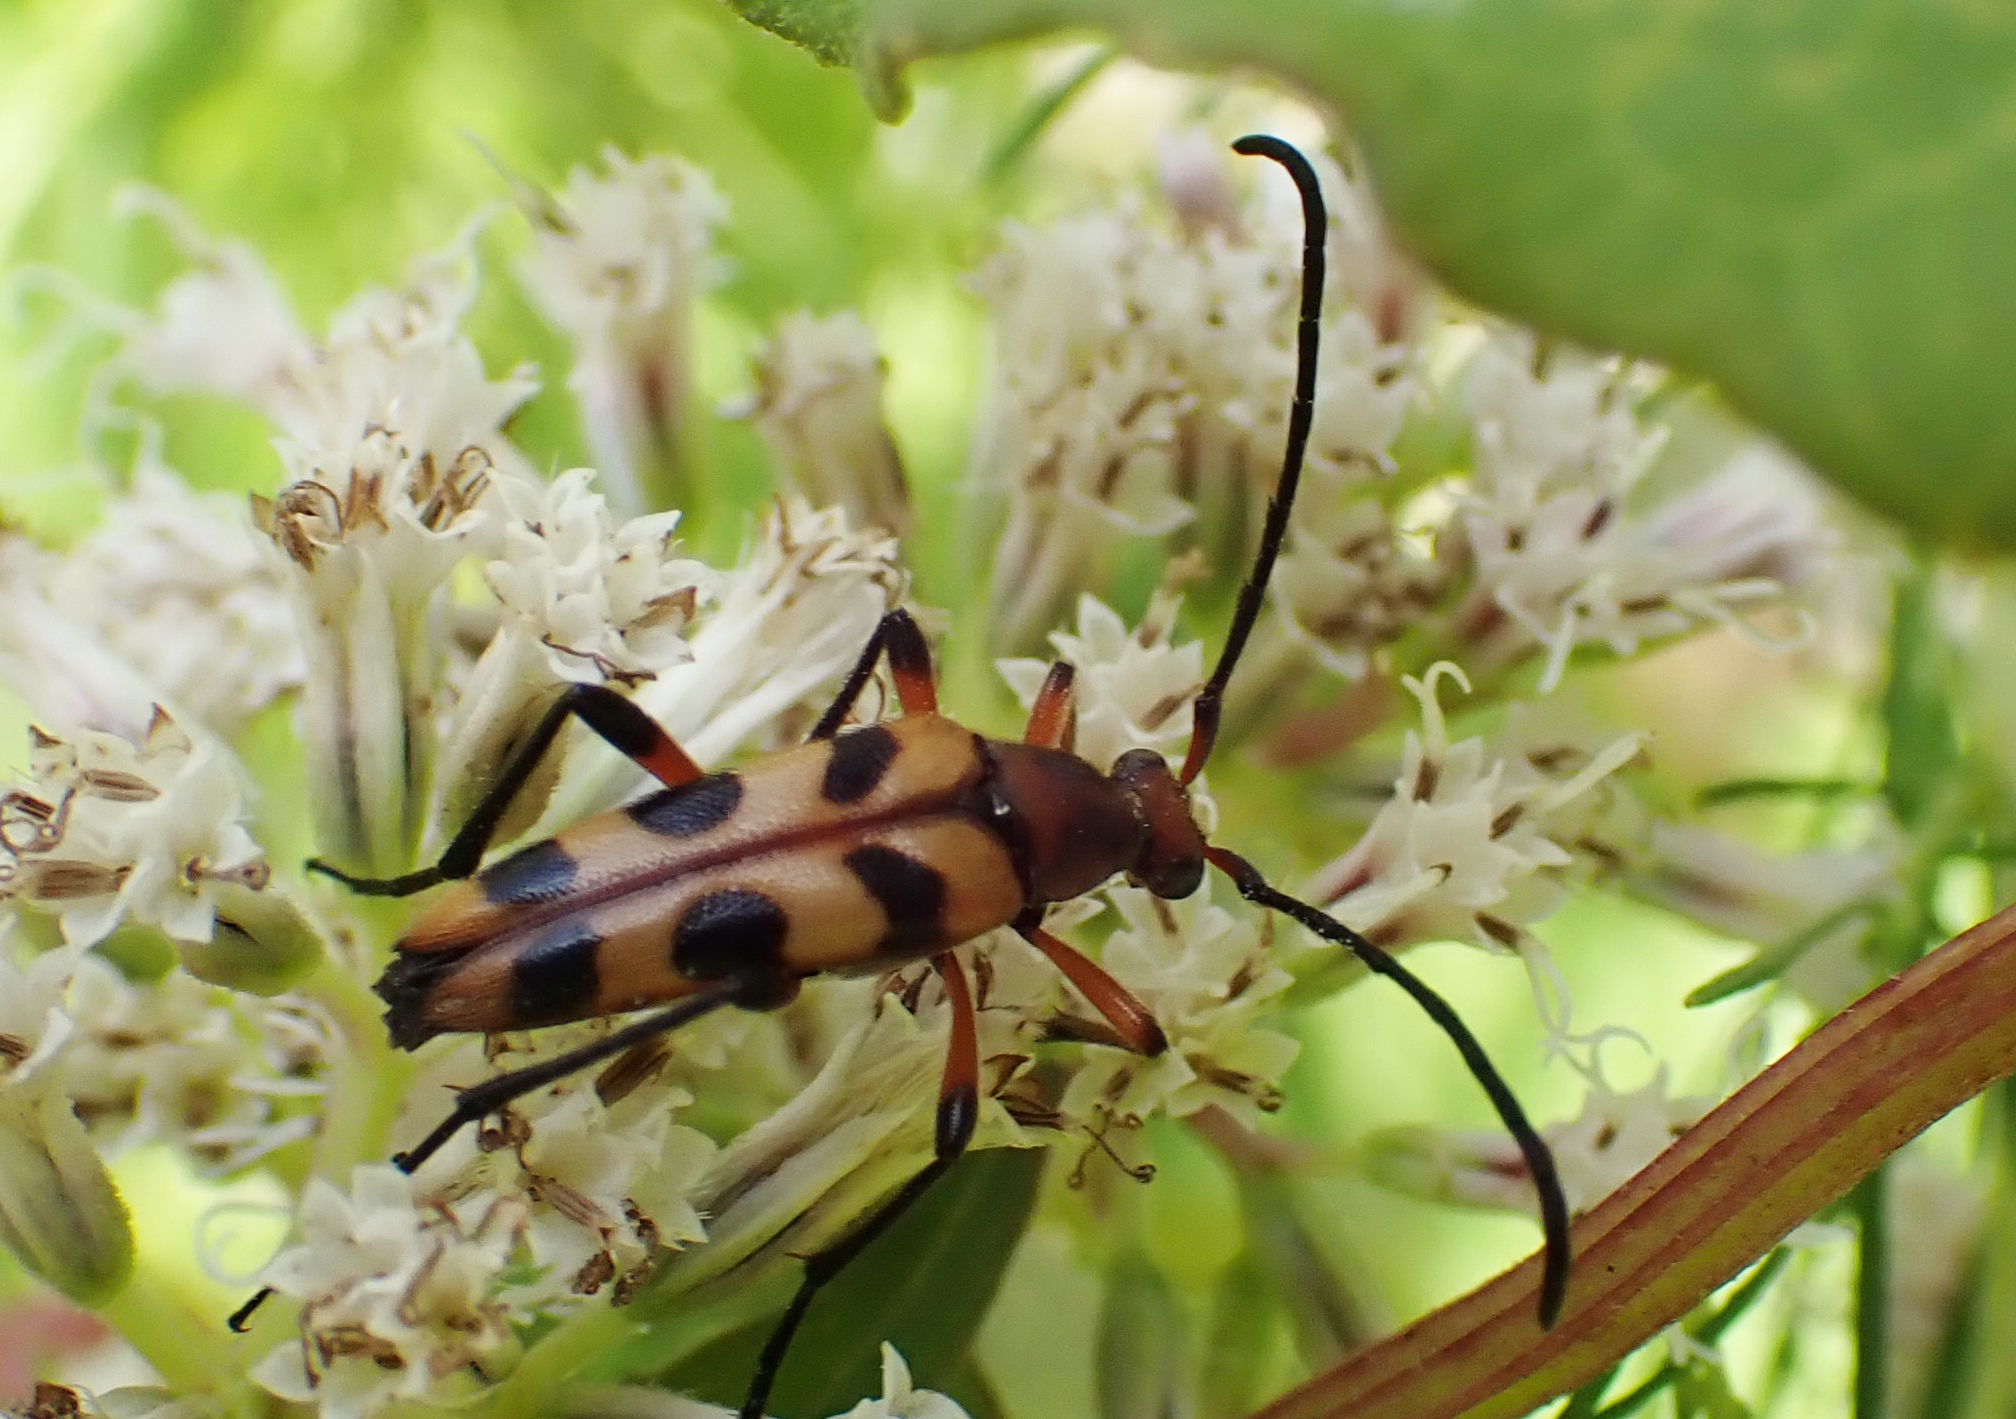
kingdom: Animalia
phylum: Arthropoda
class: Insecta
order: Coleoptera
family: Cerambycidae
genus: Strangalia
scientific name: Strangalia sexnotata
